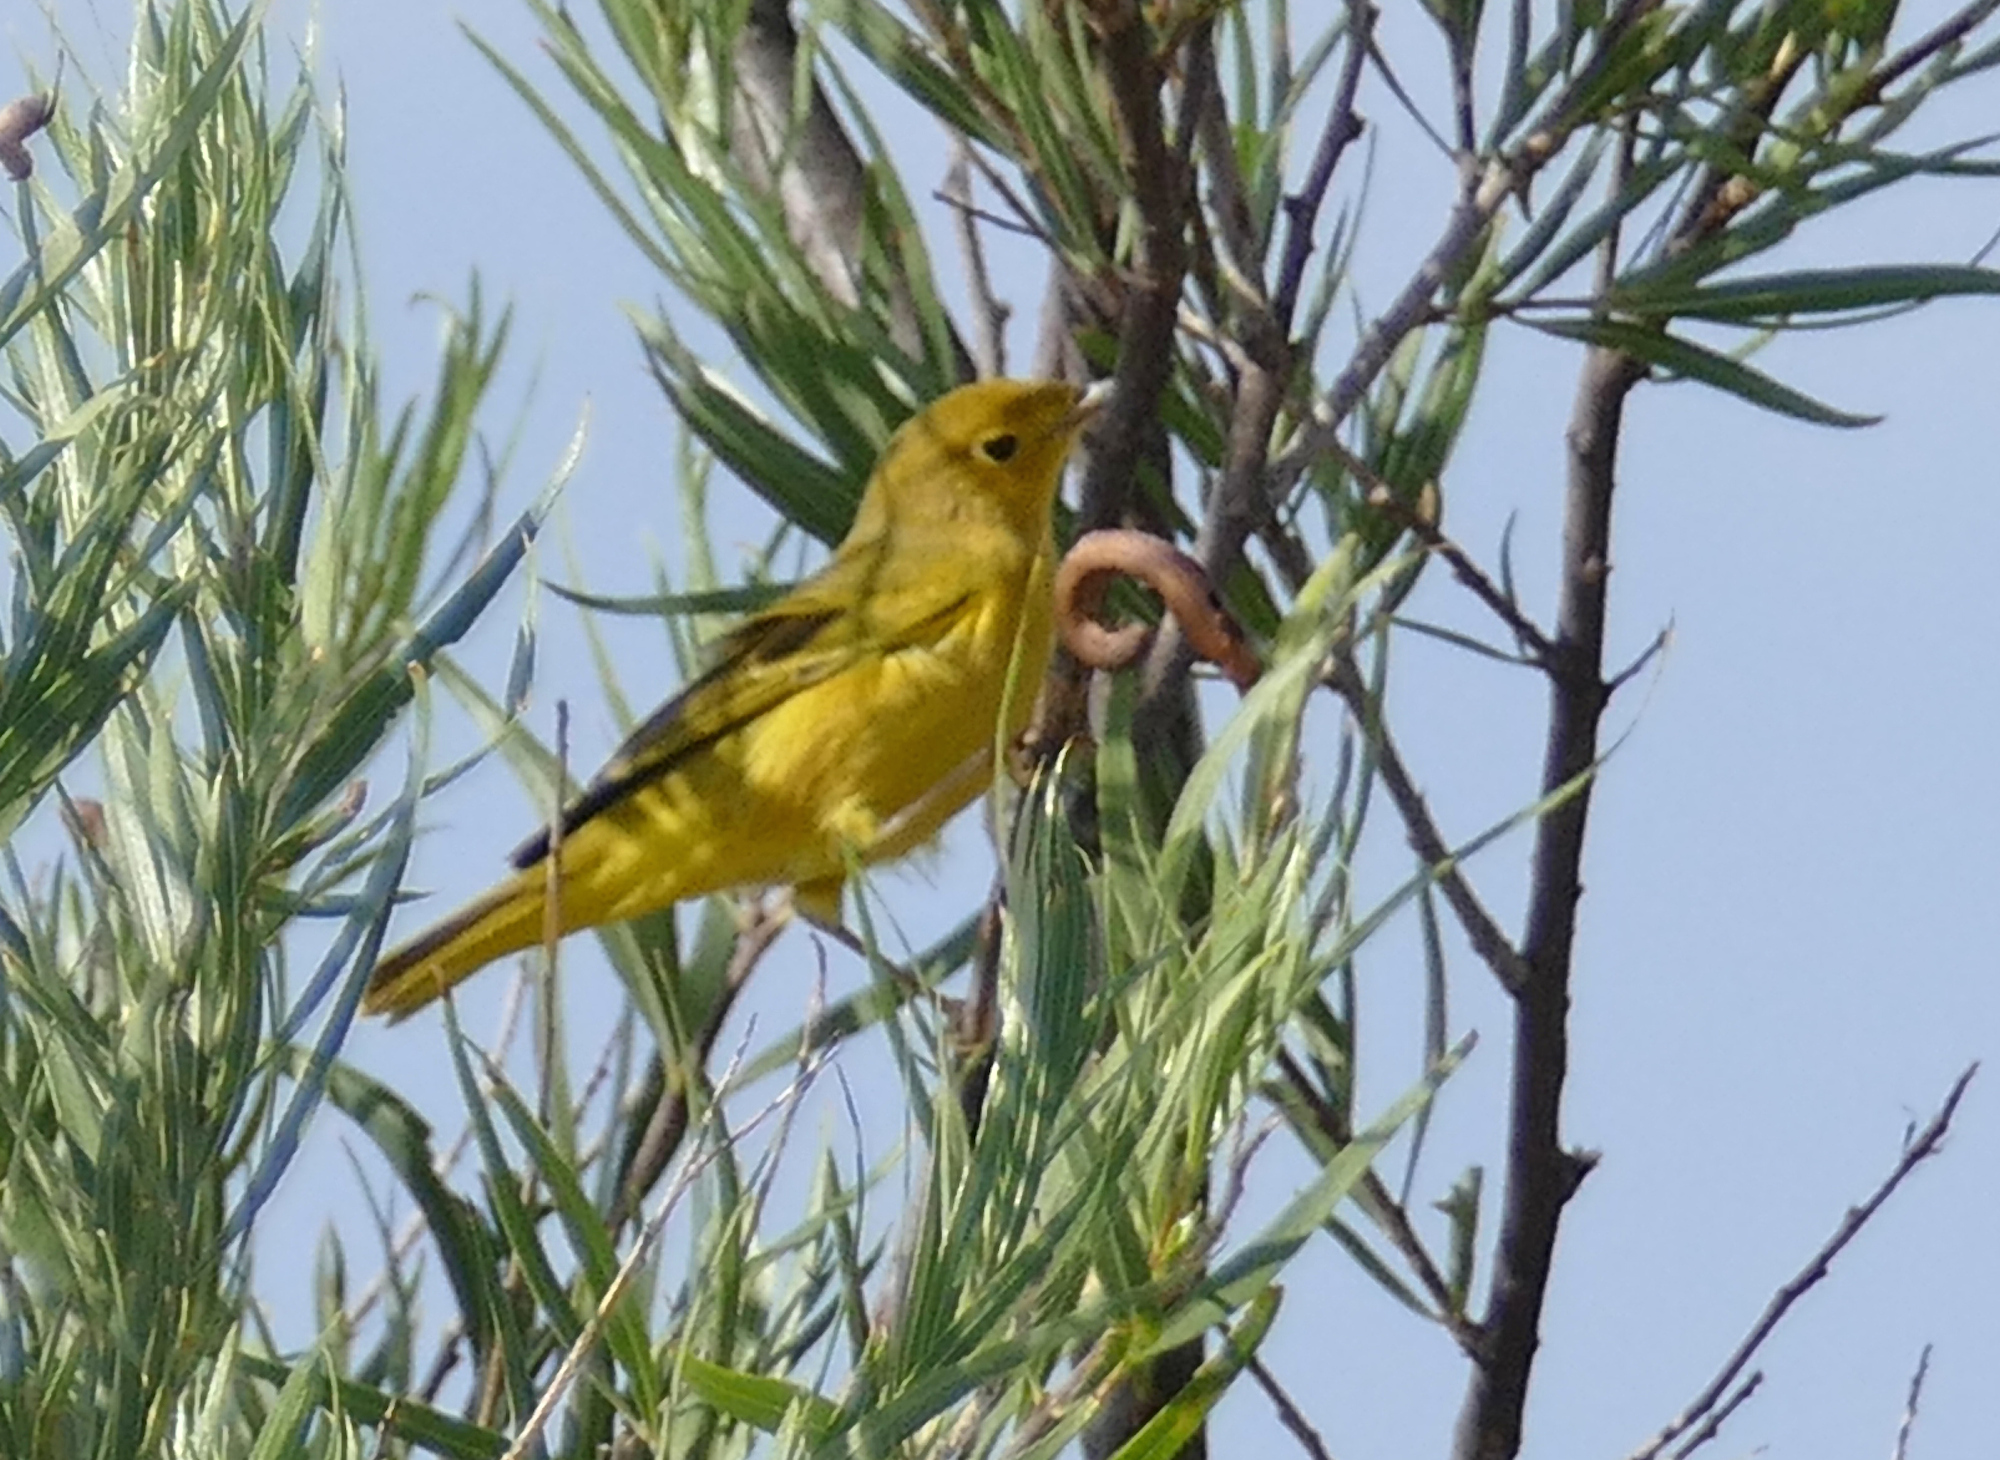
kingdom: Animalia
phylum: Chordata
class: Aves
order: Passeriformes
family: Parulidae
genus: Setophaga
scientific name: Setophaga petechia
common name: Yellow warbler
